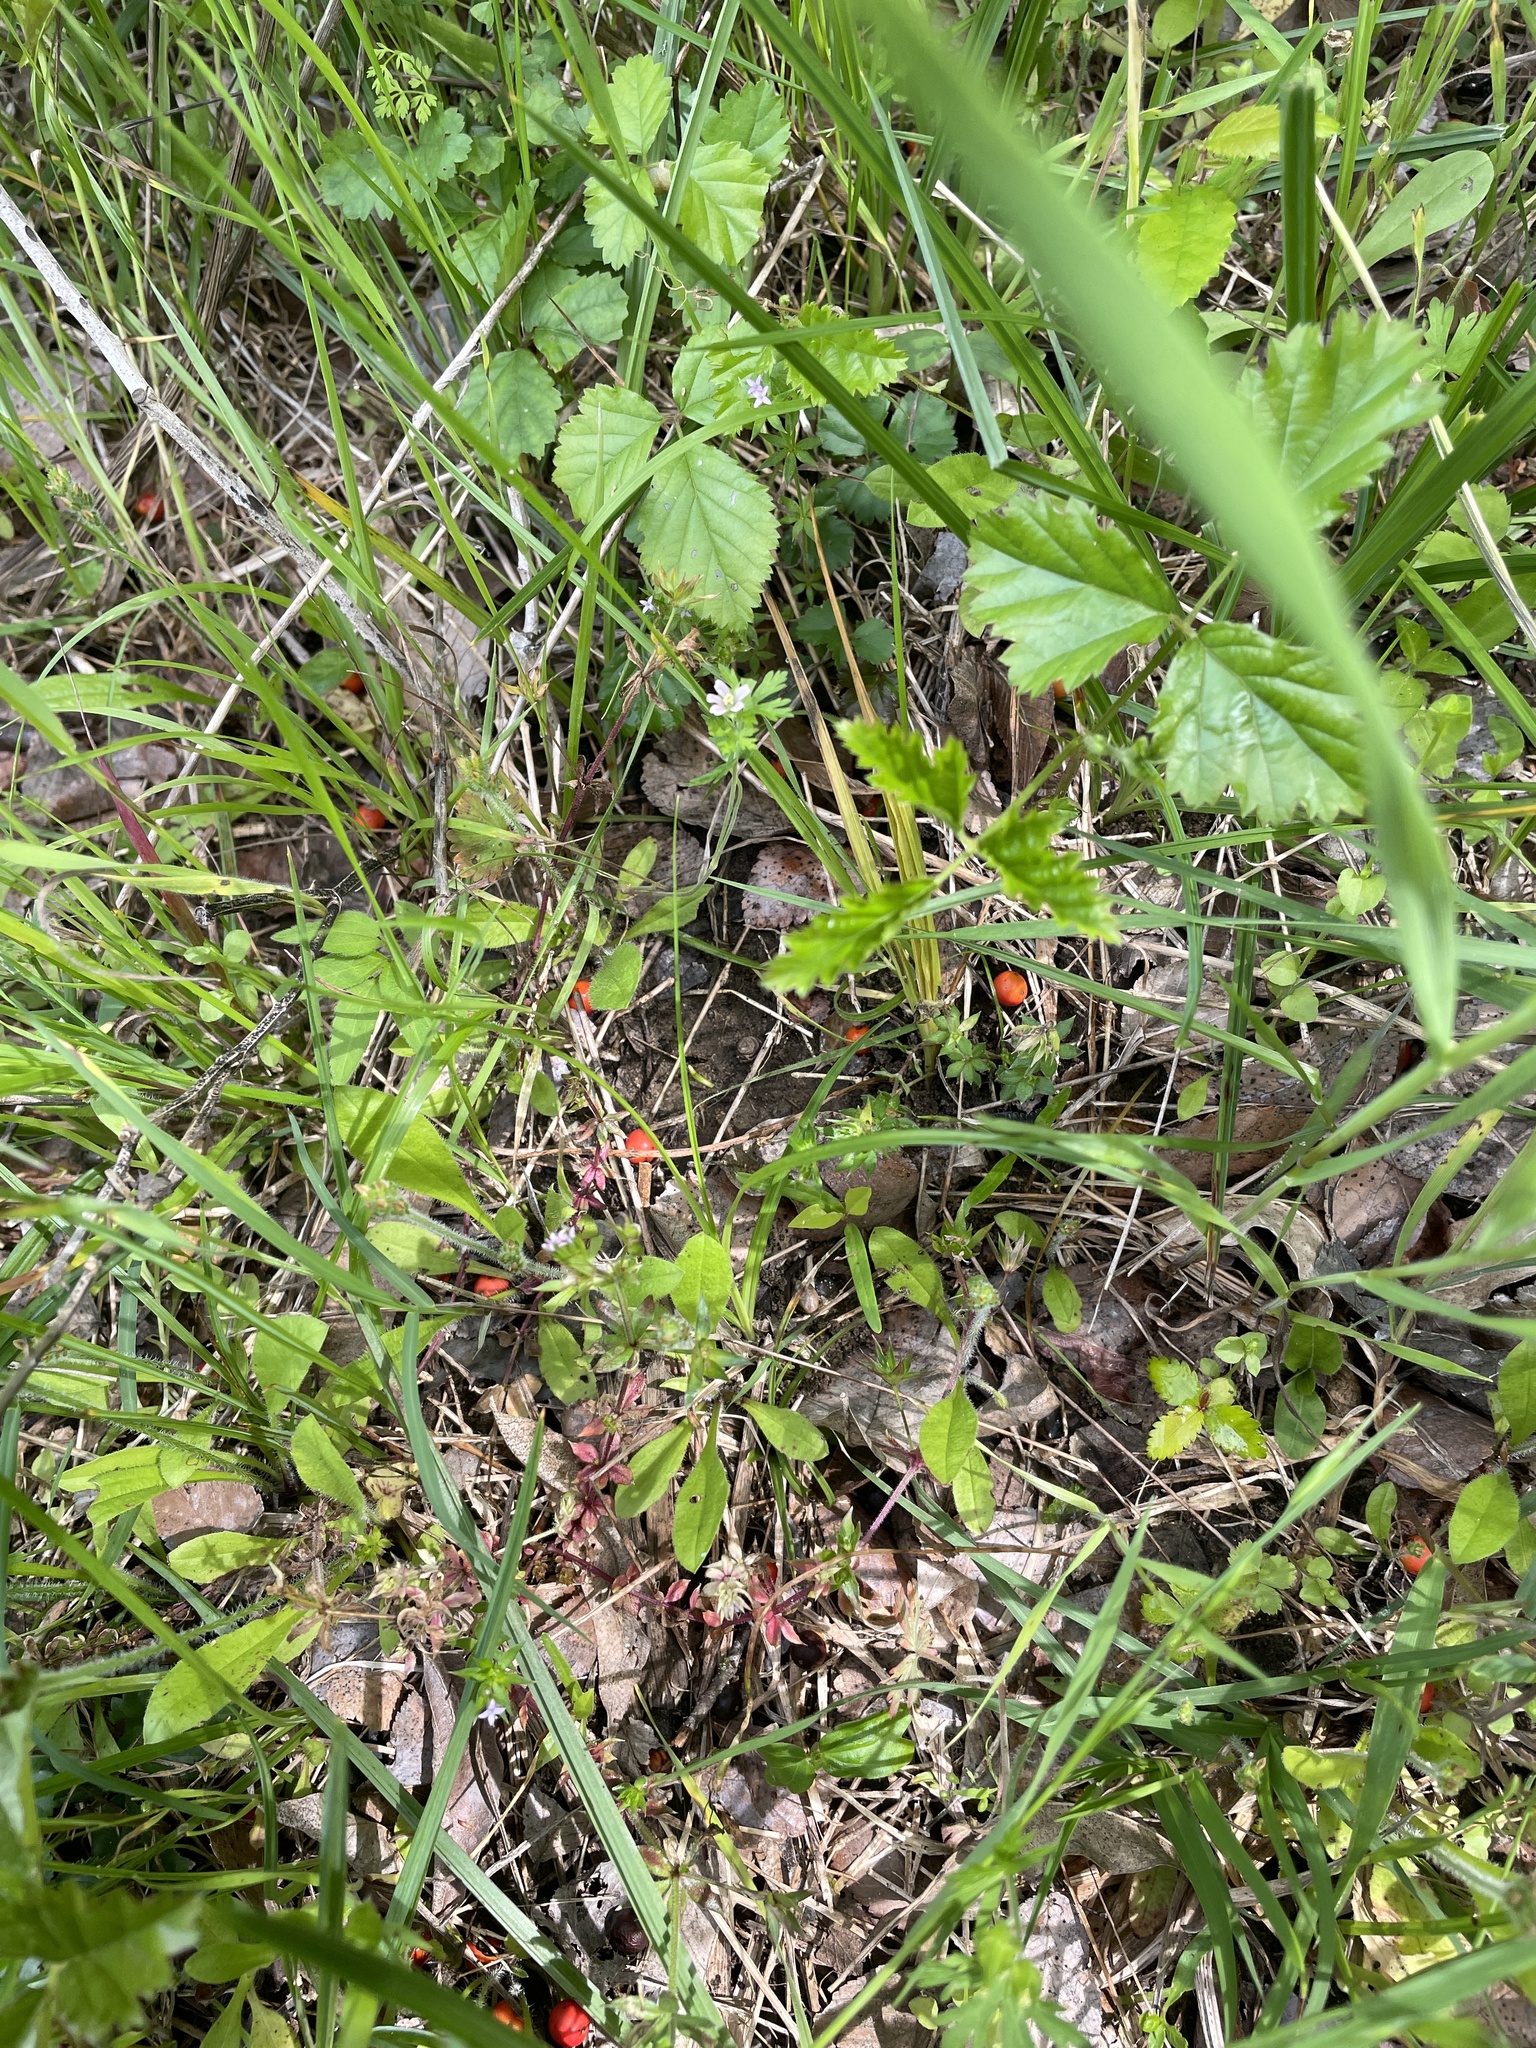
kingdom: Plantae
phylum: Tracheophyta
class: Magnoliopsida
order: Geraniales
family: Geraniaceae
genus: Geranium
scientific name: Geranium carolinianum
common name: Carolina crane's-bill
